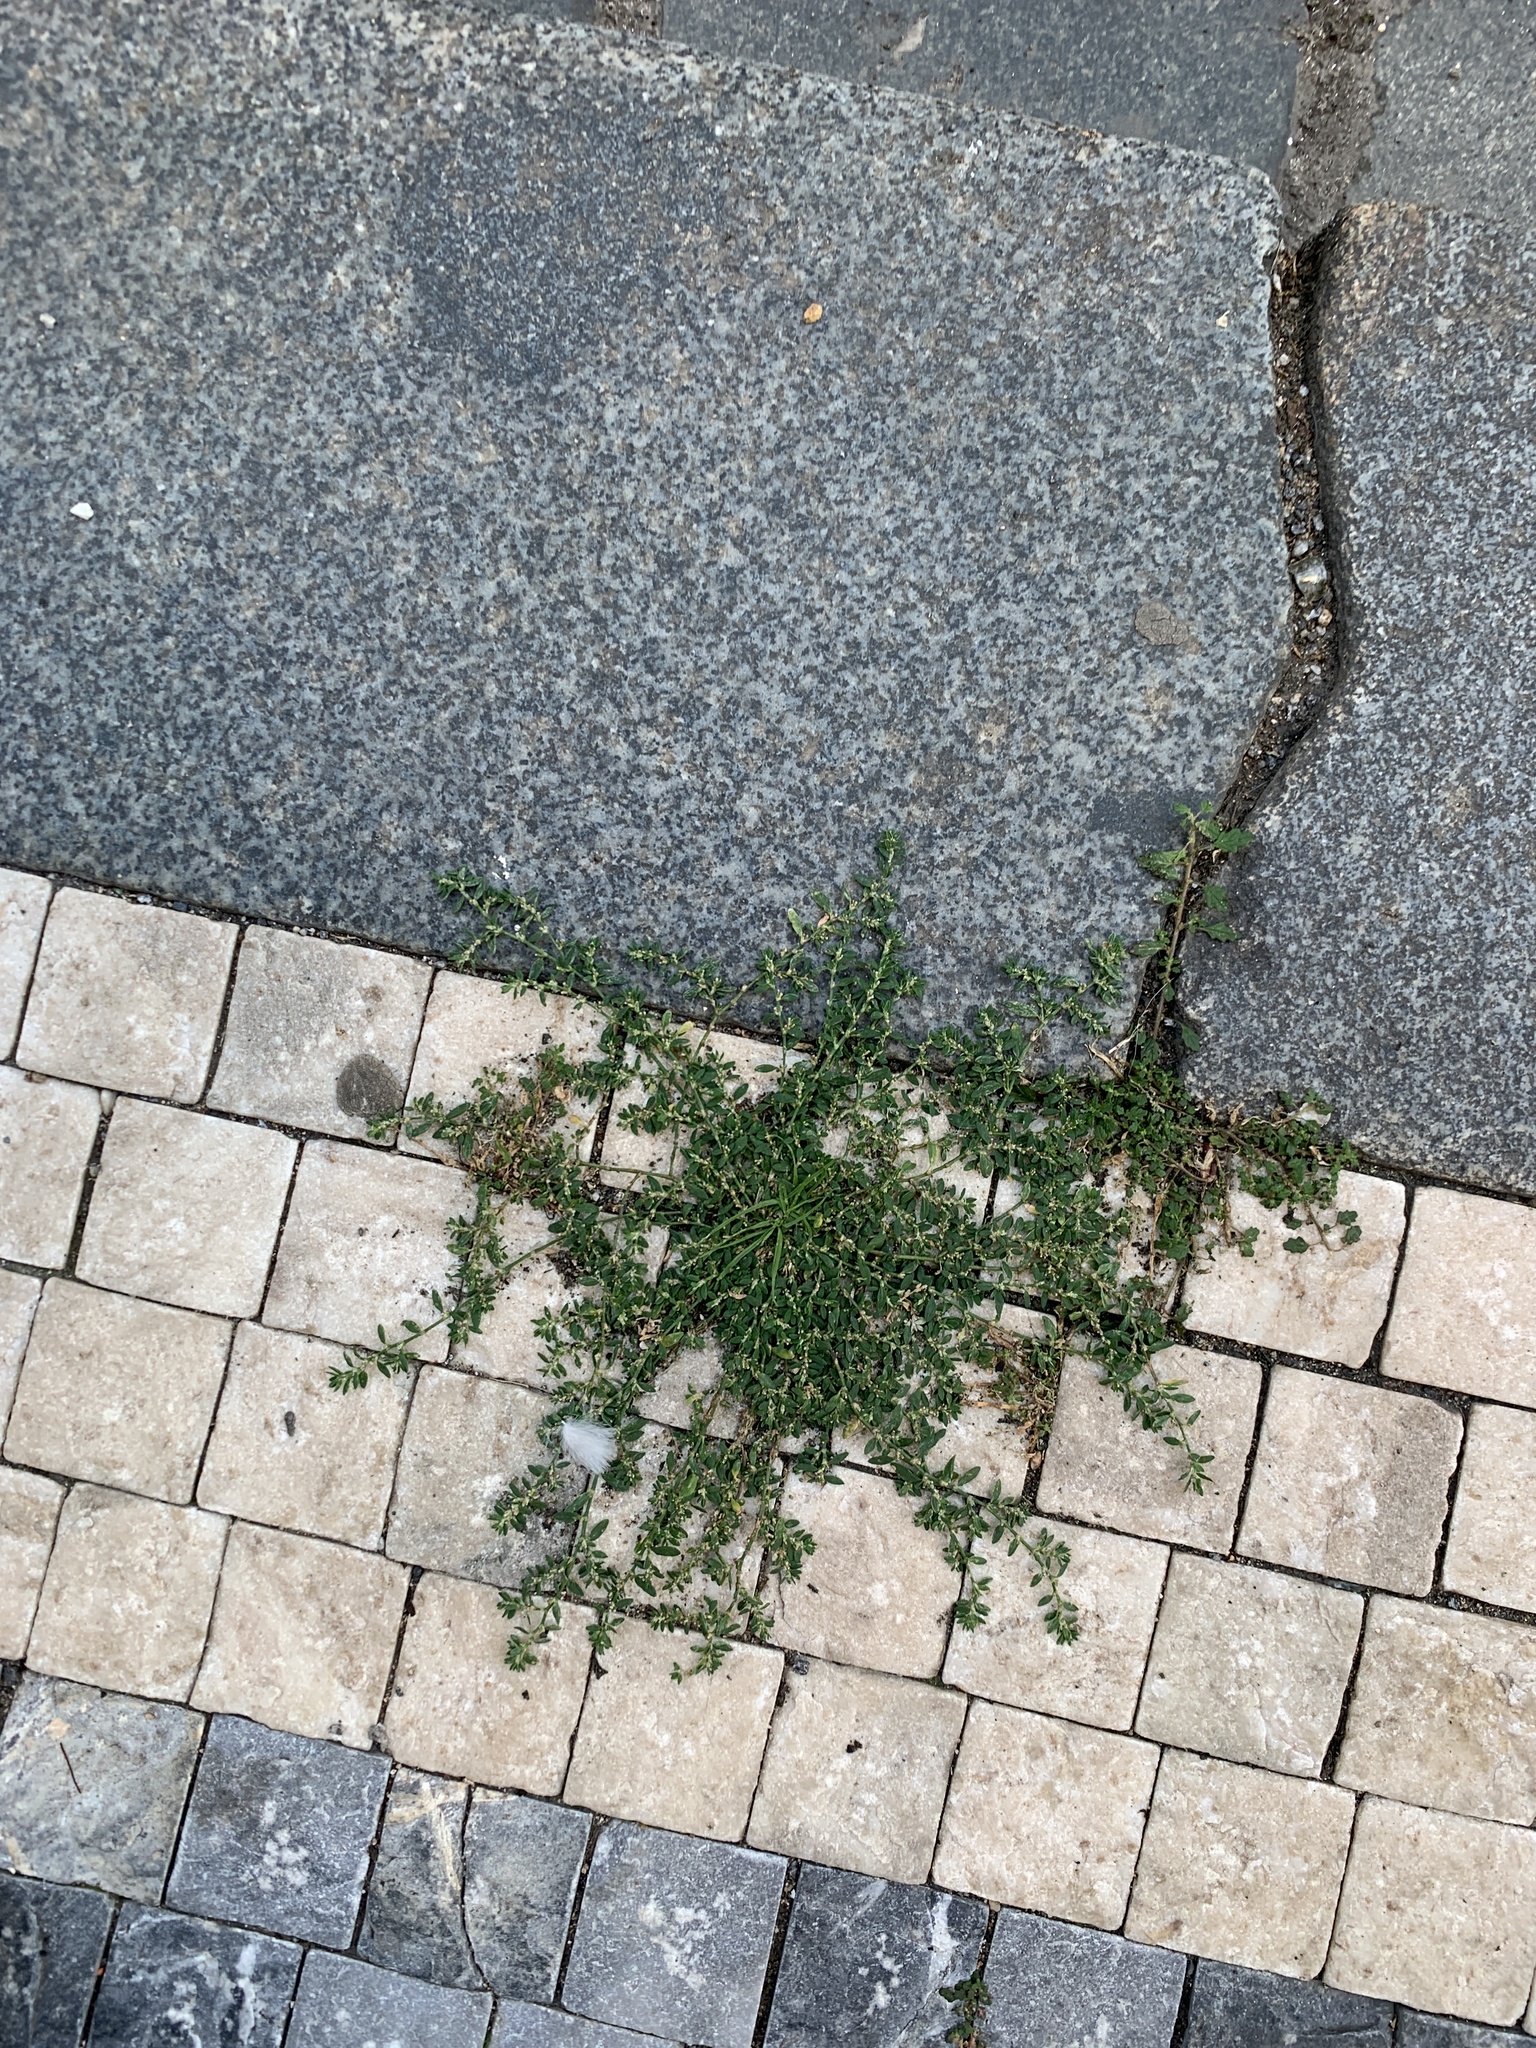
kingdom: Plantae
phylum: Tracheophyta
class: Magnoliopsida
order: Caryophyllales
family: Polygonaceae
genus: Polygonum
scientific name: Polygonum
